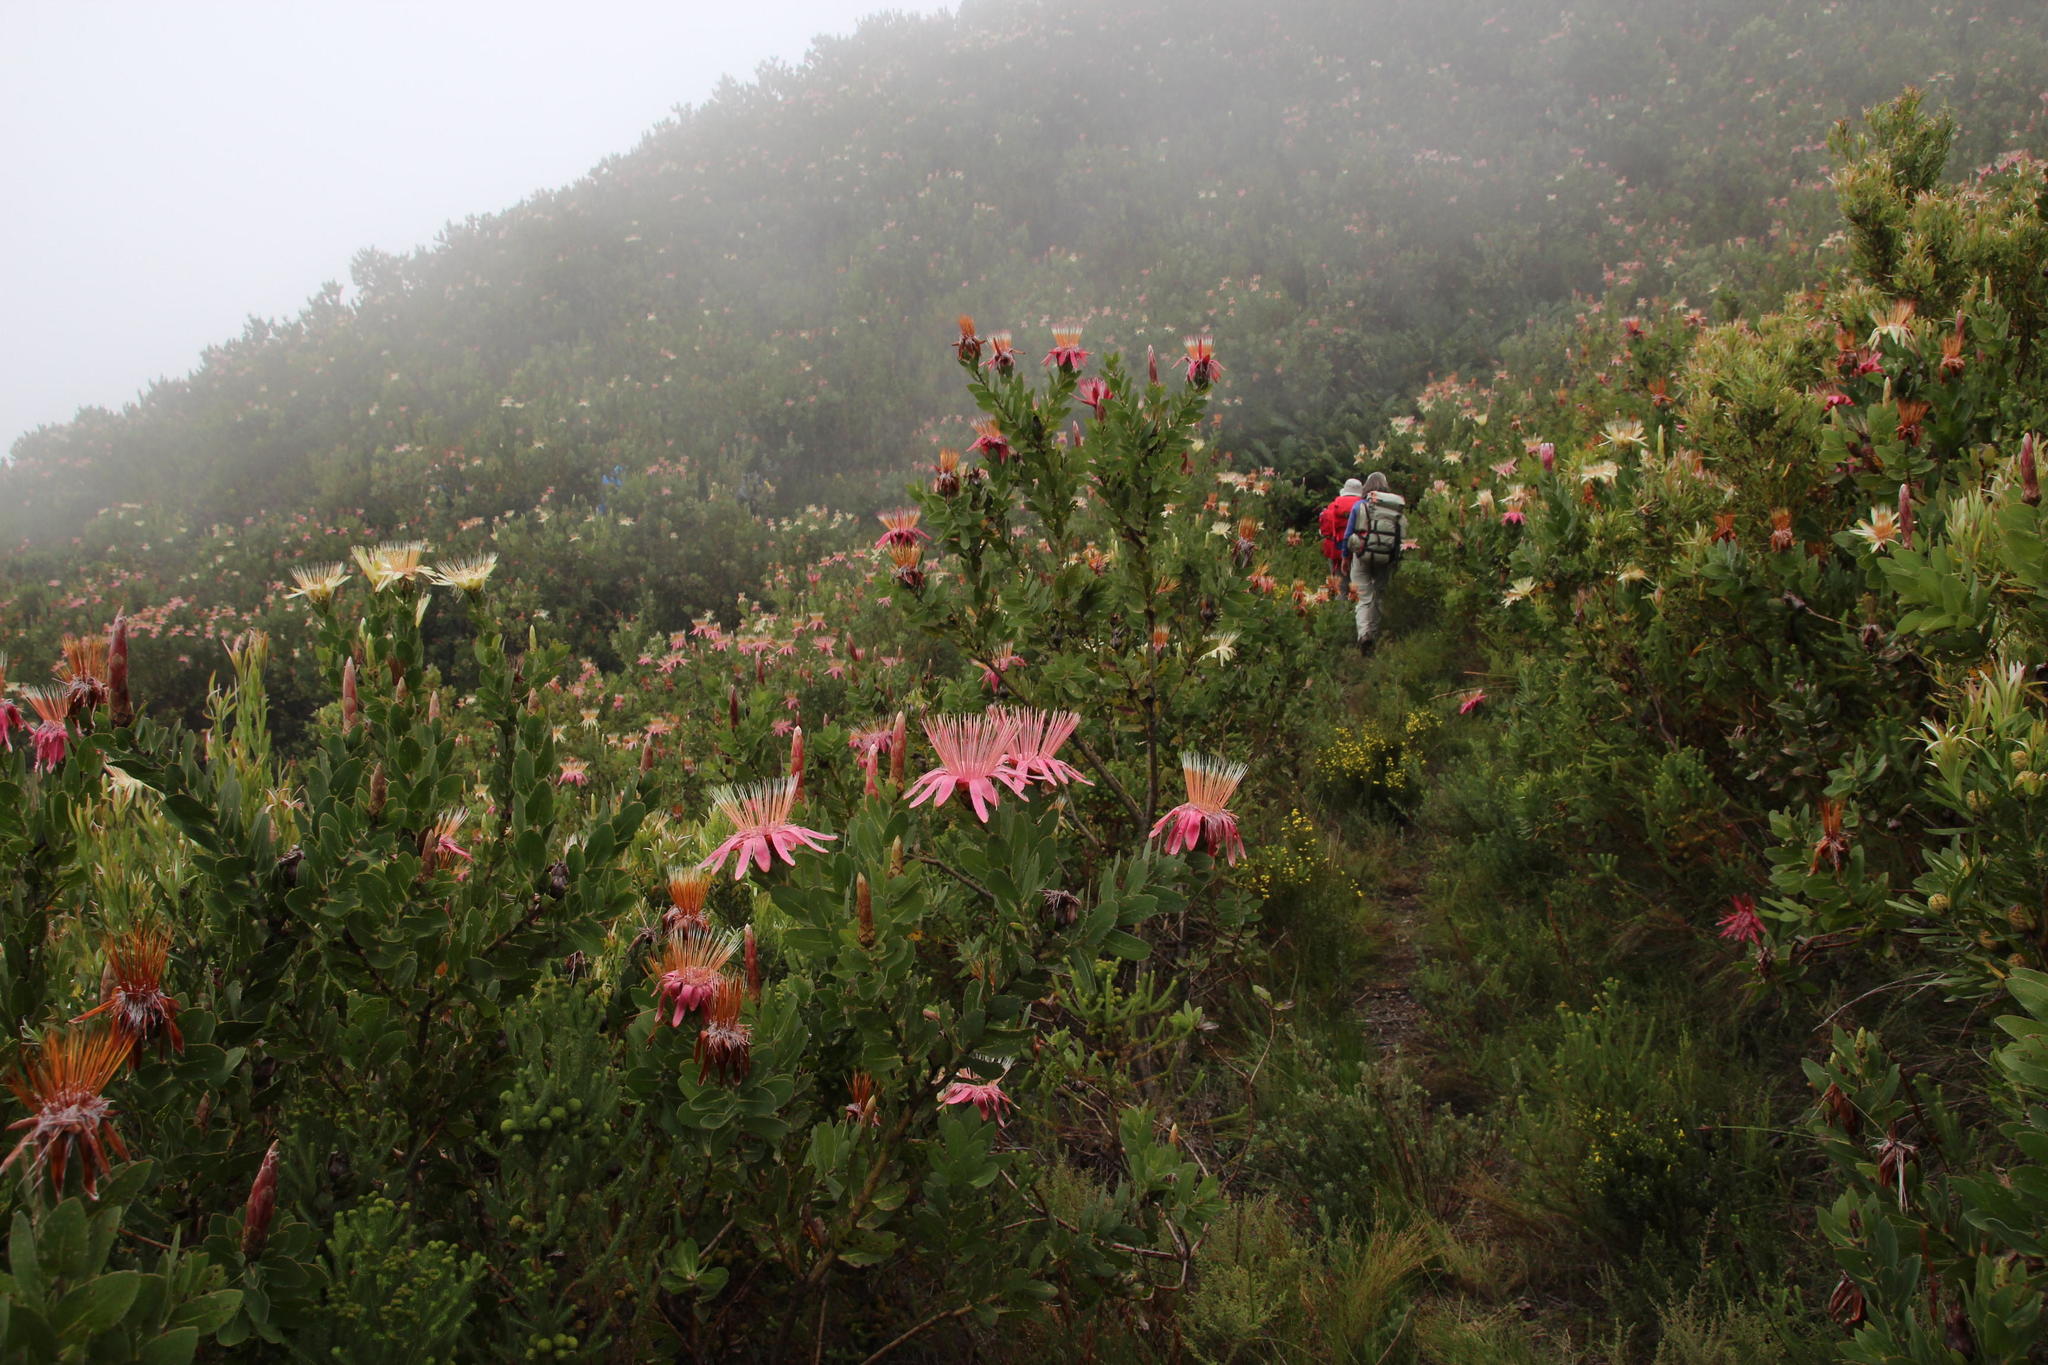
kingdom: Plantae
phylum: Tracheophyta
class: Magnoliopsida
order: Proteales
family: Proteaceae
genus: Protea
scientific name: Protea aurea
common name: Shuttlecock sugarbush
